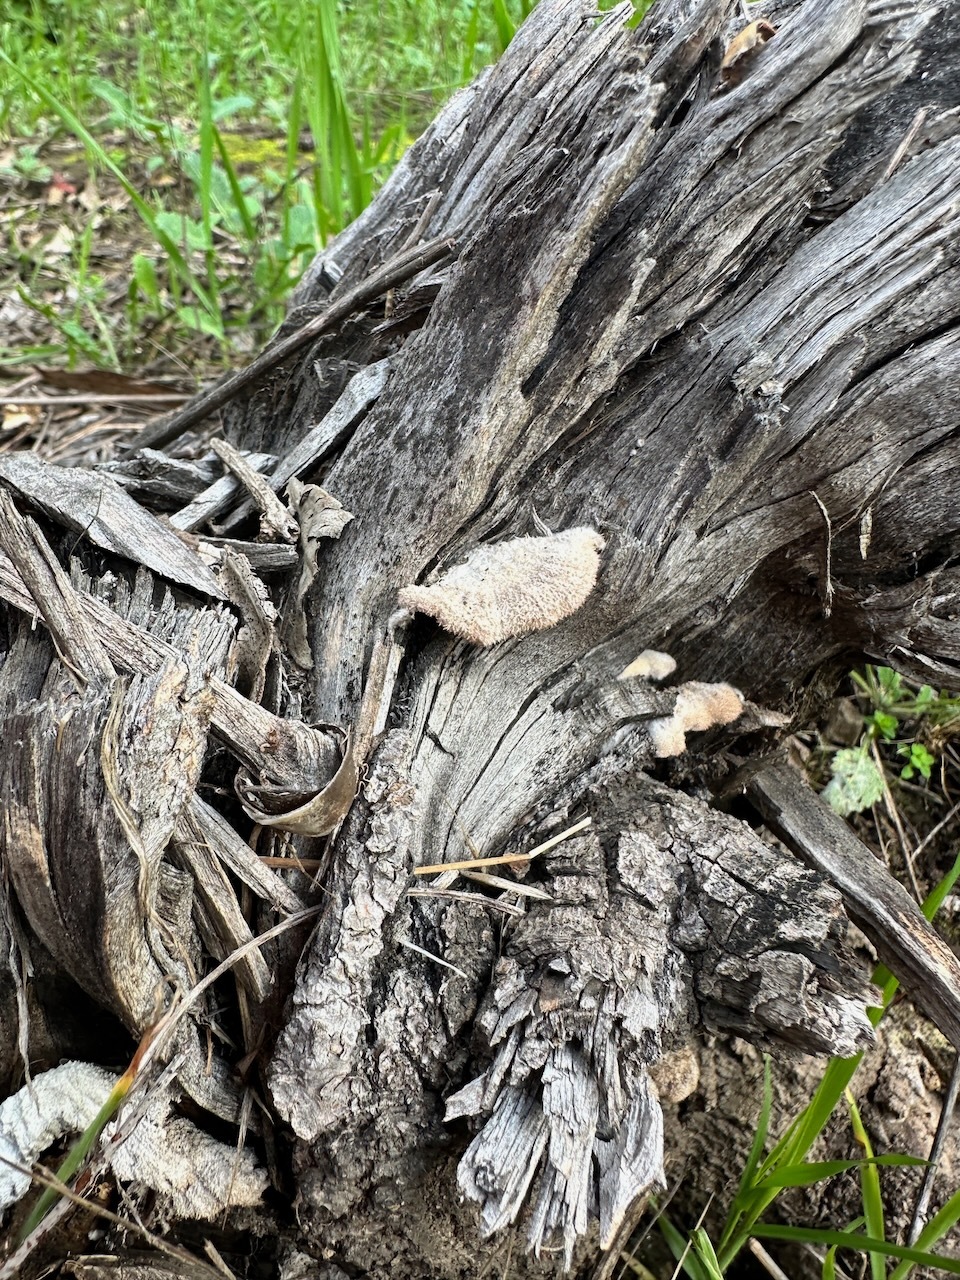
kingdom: Fungi
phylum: Basidiomycota
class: Agaricomycetes
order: Agaricales
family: Schizophyllaceae
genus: Schizophyllum
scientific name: Schizophyllum commune
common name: Common porecrust
